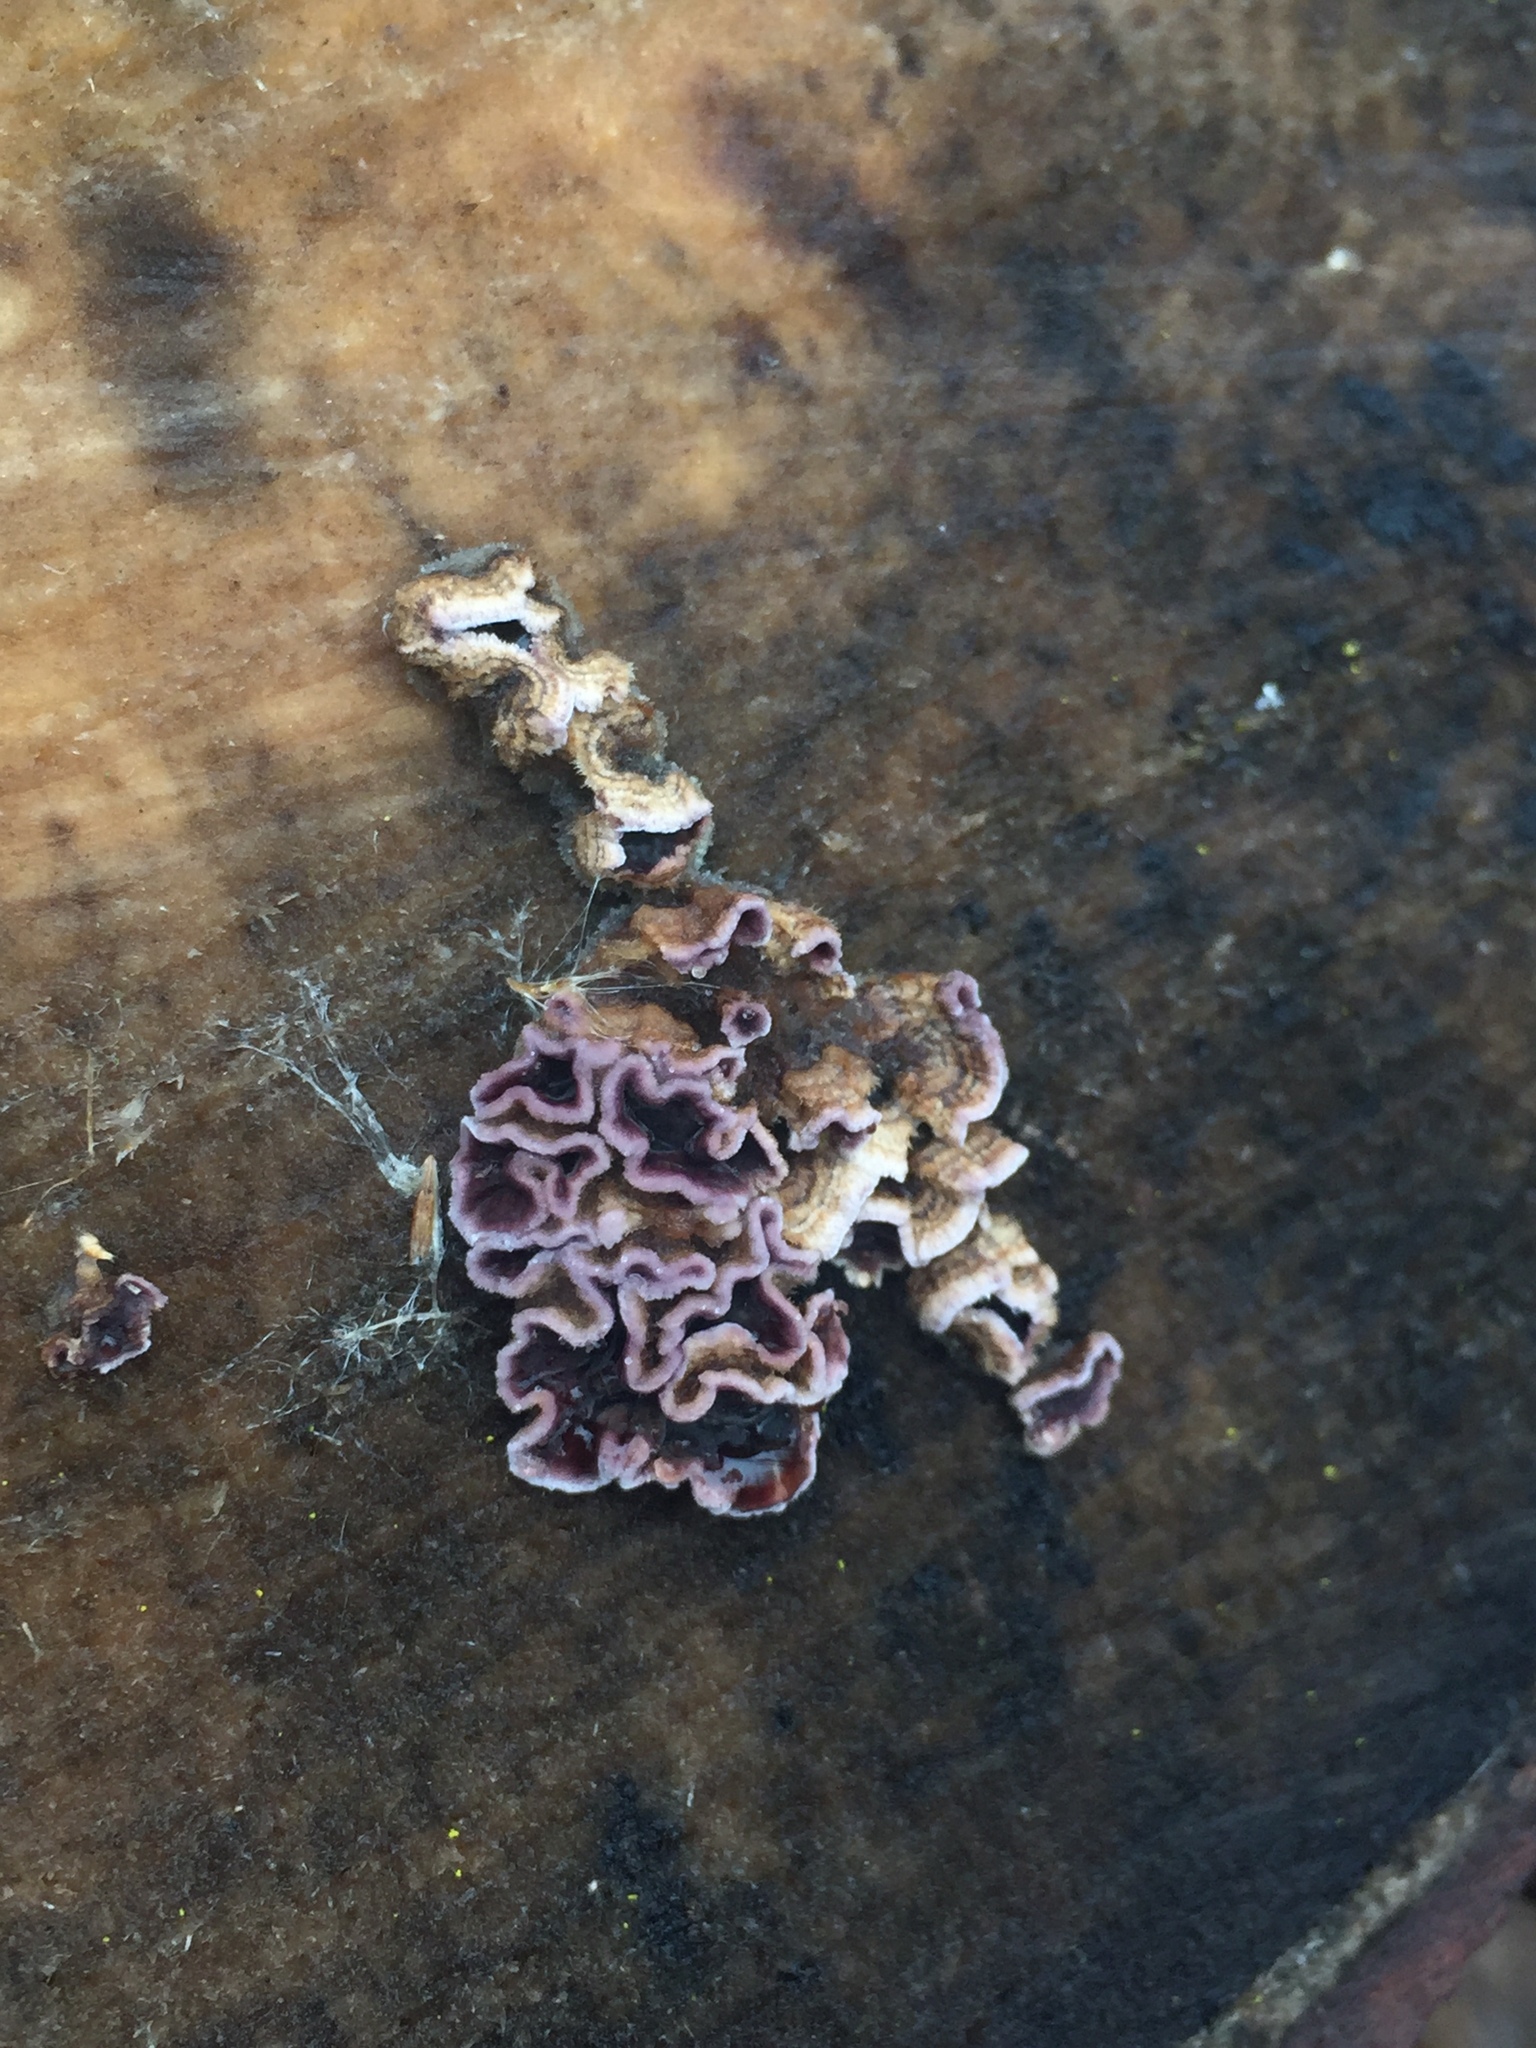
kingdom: Fungi
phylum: Basidiomycota
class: Agaricomycetes
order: Agaricales
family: Cyphellaceae
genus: Chondrostereum
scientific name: Chondrostereum purpureum
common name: Silver leaf disease
